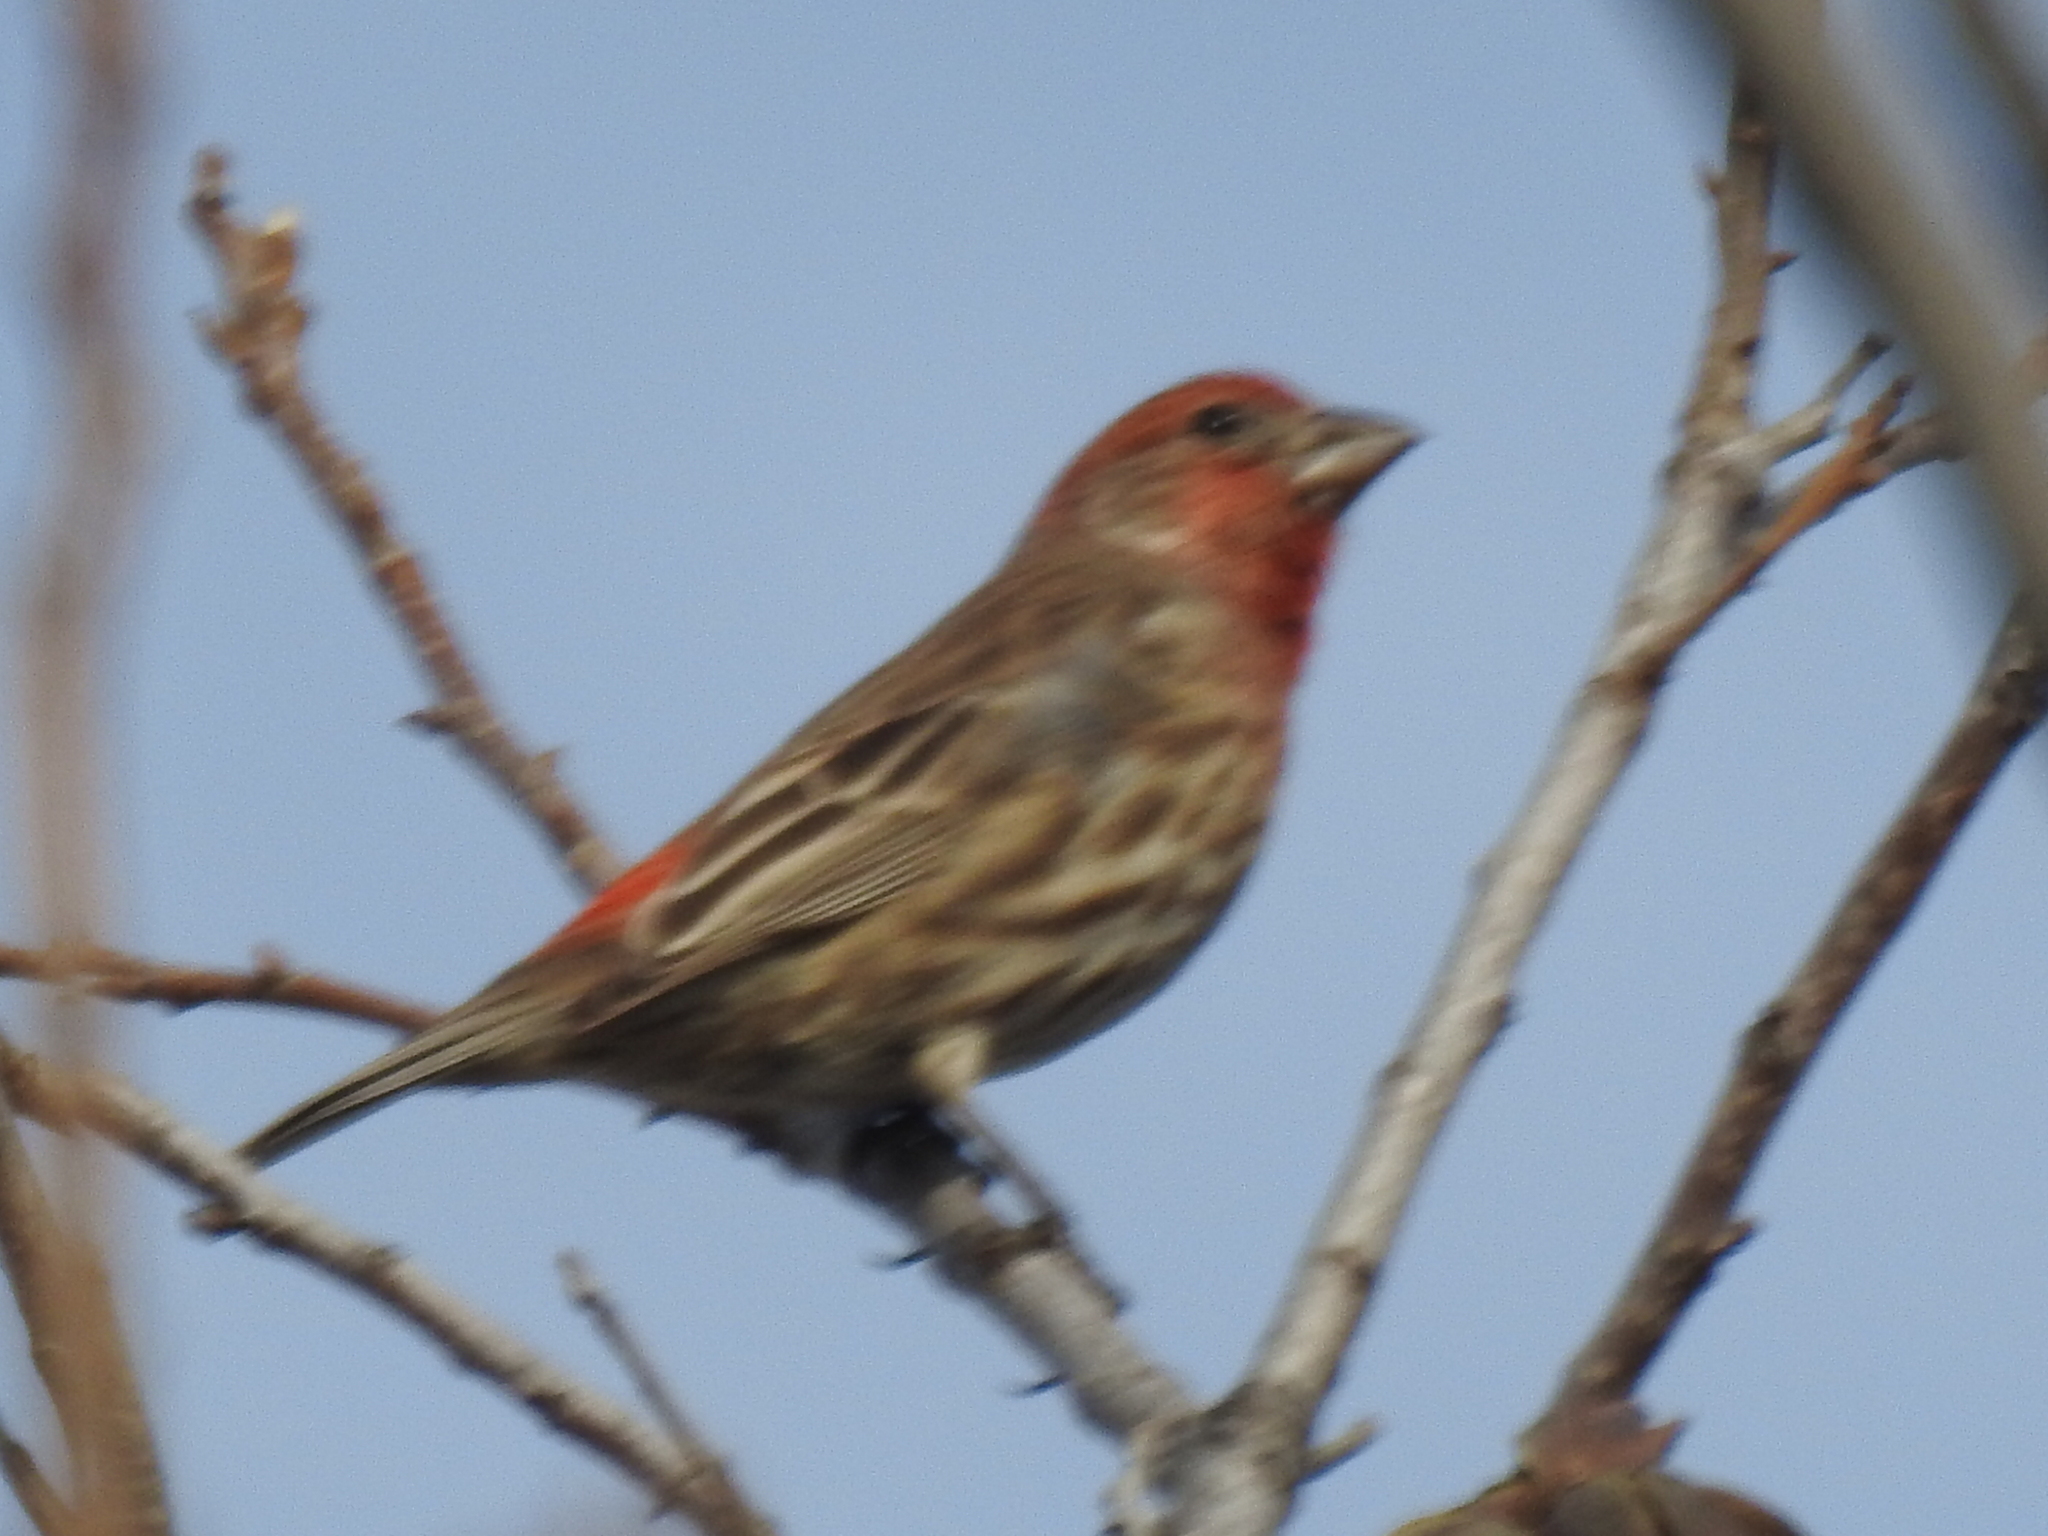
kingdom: Animalia
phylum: Chordata
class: Aves
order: Passeriformes
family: Fringillidae
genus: Haemorhous
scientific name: Haemorhous mexicanus
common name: House finch
